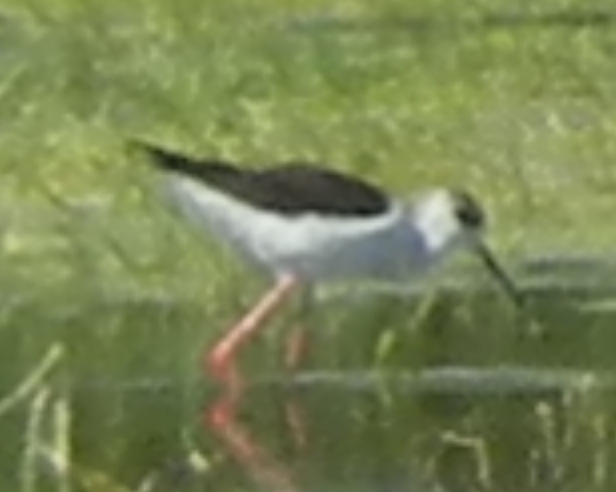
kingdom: Animalia
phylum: Chordata
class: Aves
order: Charadriiformes
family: Recurvirostridae
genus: Himantopus
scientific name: Himantopus himantopus
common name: Black-winged stilt
